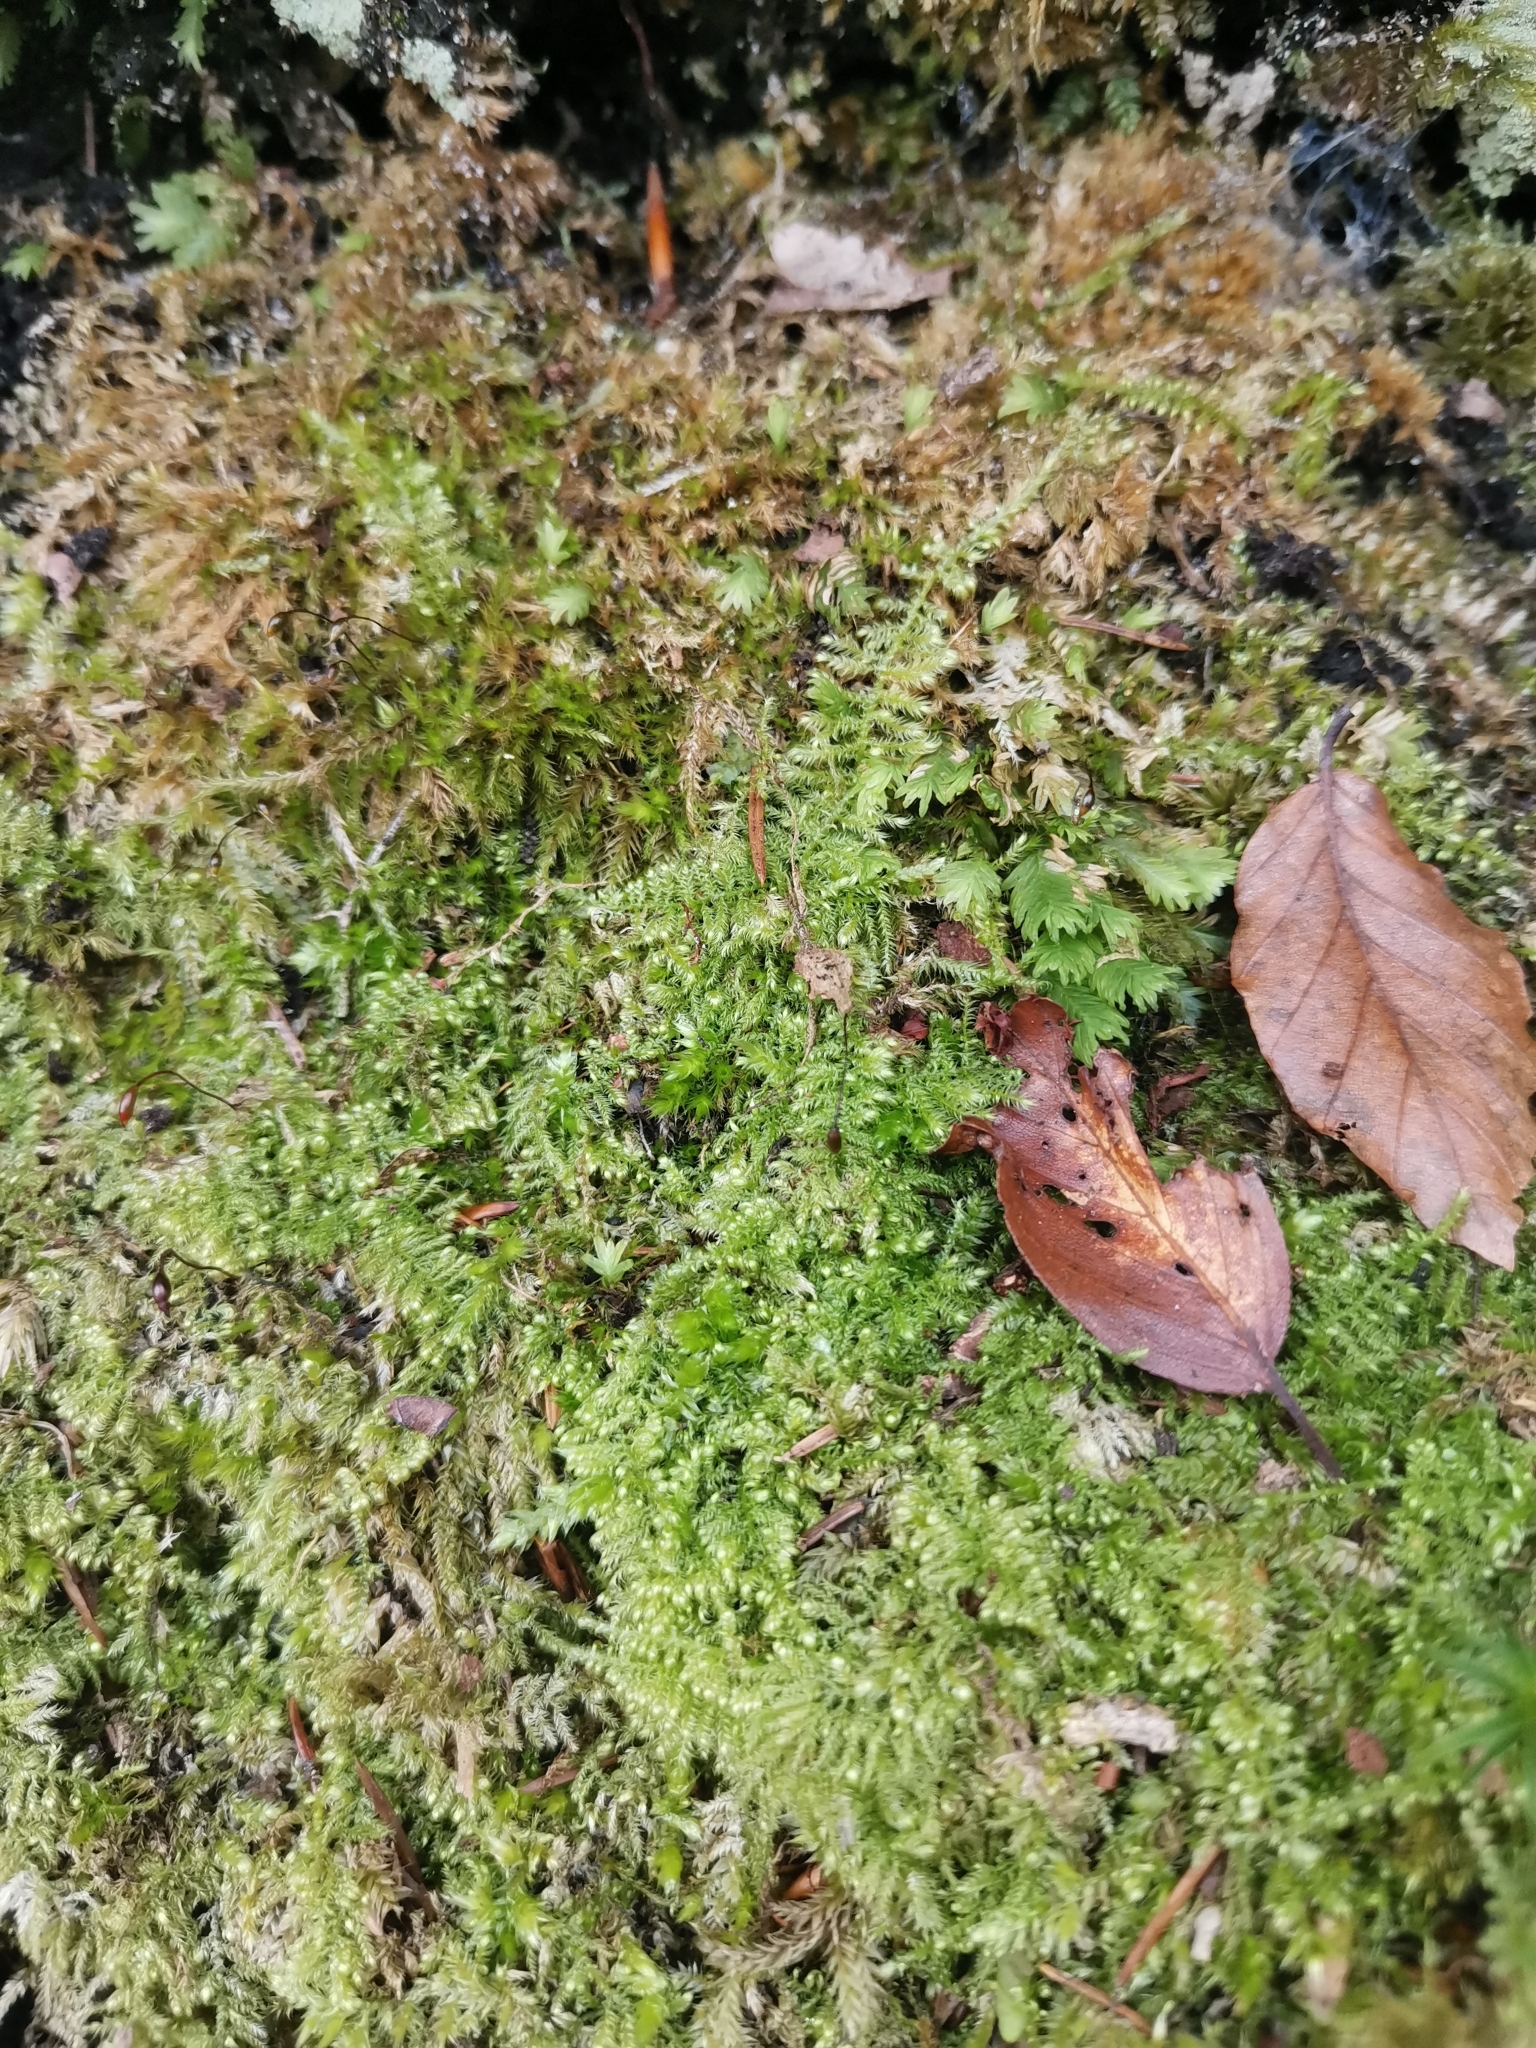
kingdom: Plantae
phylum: Bryophyta
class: Bryopsida
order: Hypnales
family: Myuriaceae
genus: Ctenidium
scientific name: Ctenidium molluscum
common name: Chalk comb-moss
